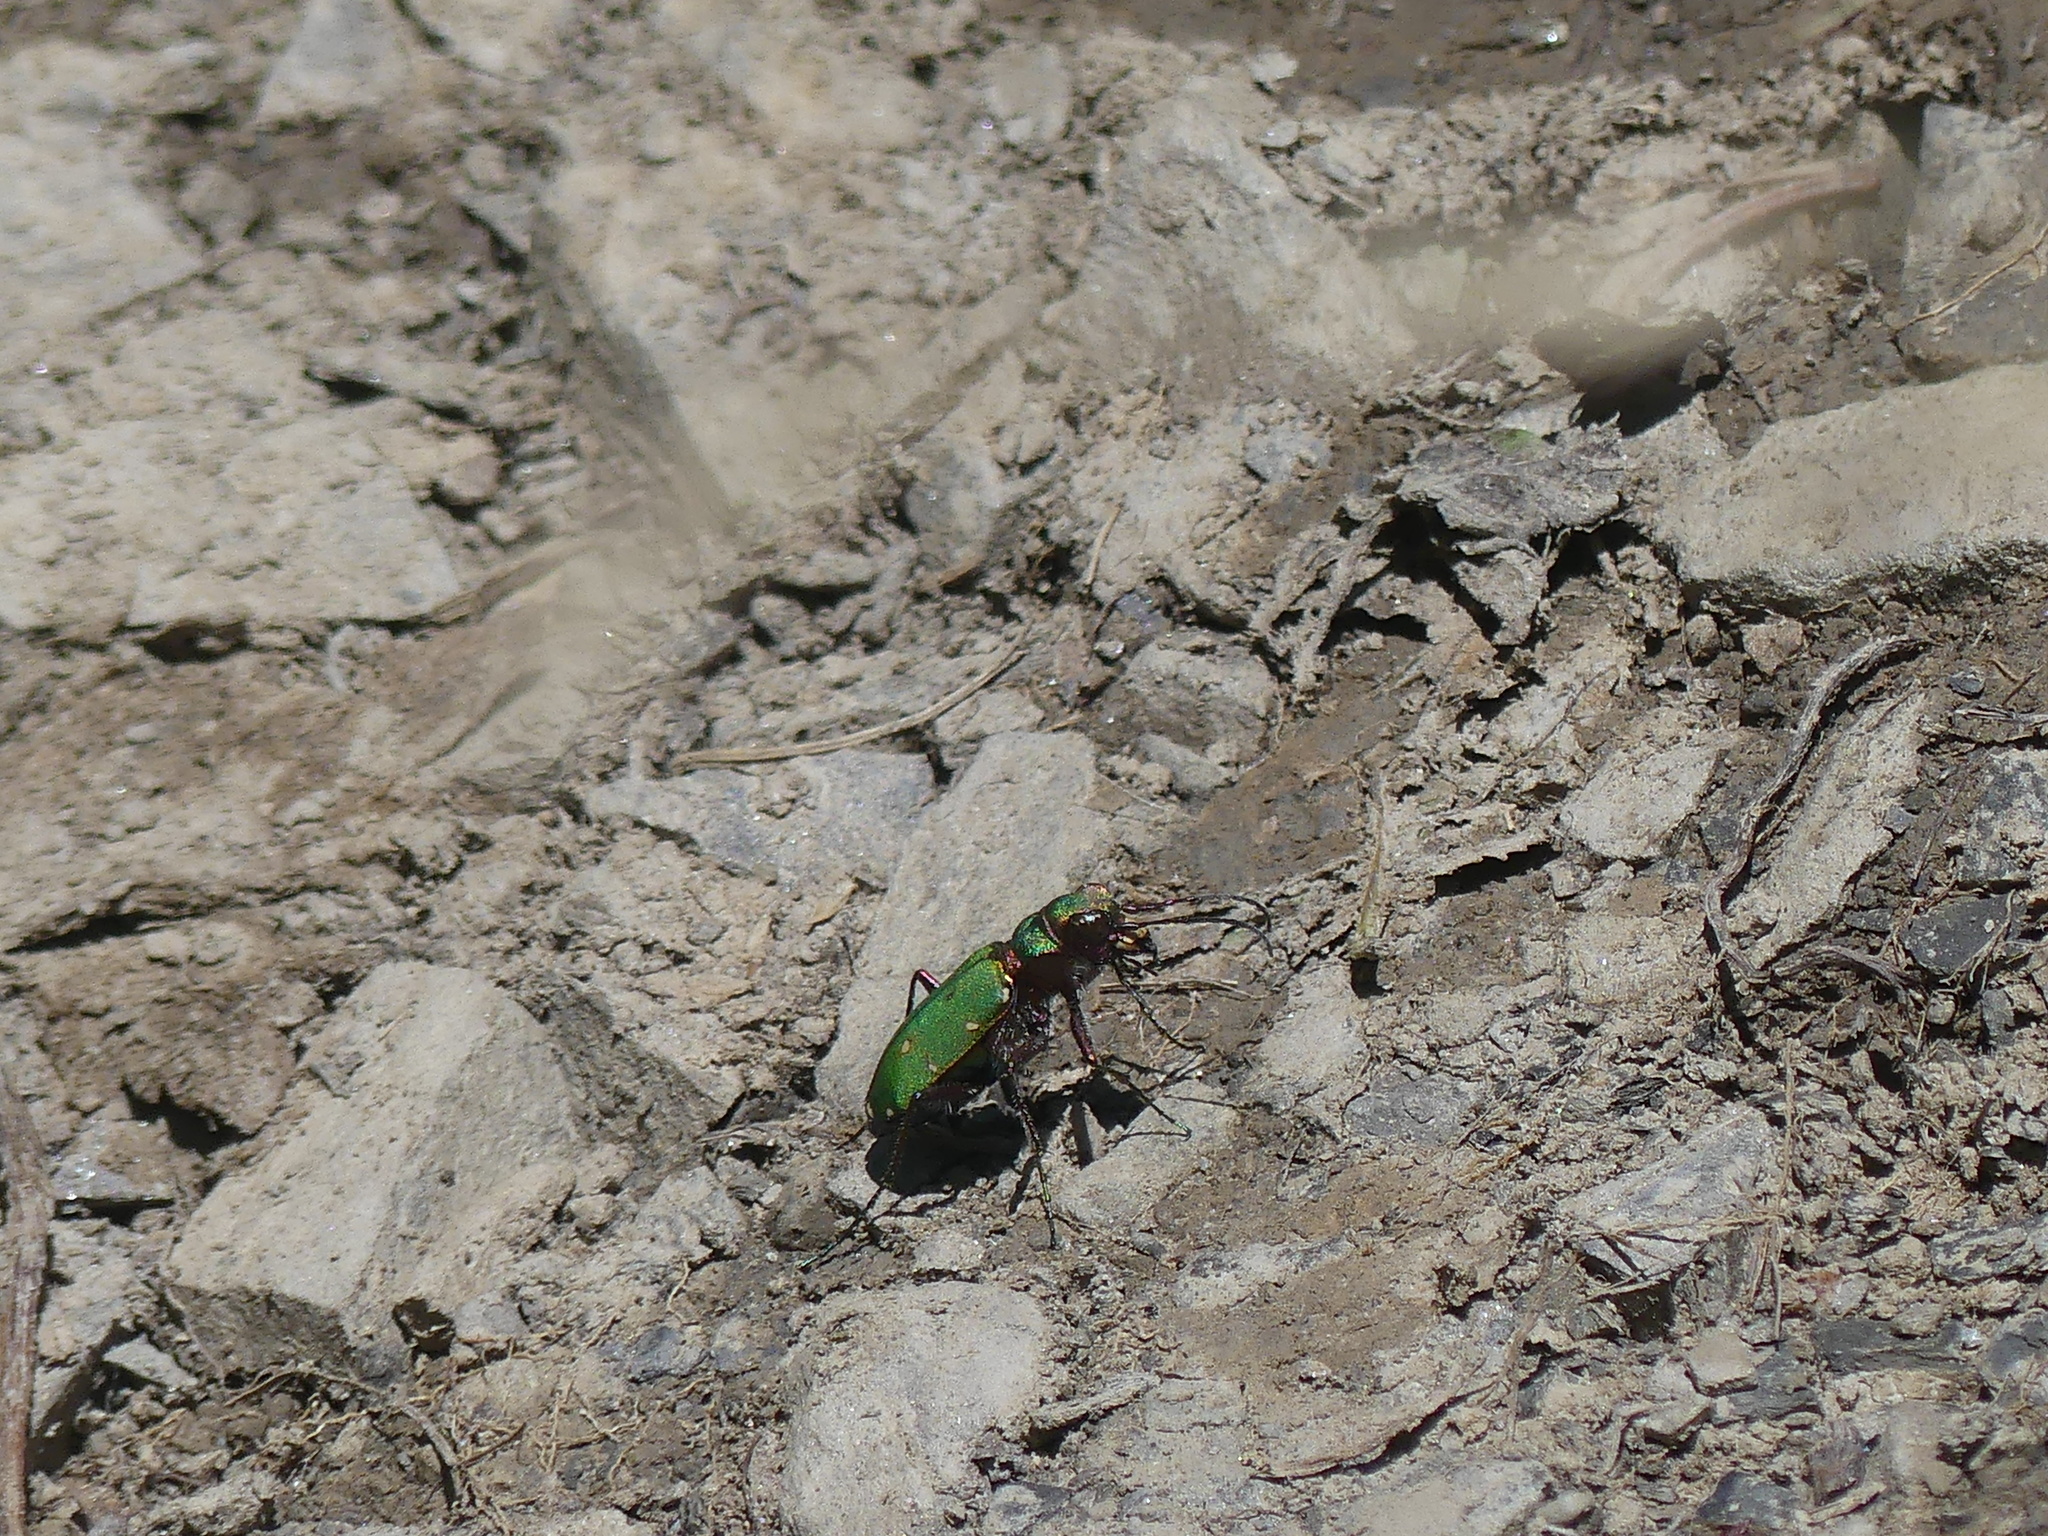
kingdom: Animalia
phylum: Arthropoda
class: Insecta
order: Coleoptera
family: Carabidae
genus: Cicindela
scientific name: Cicindela campestris
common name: Common tiger beetle
